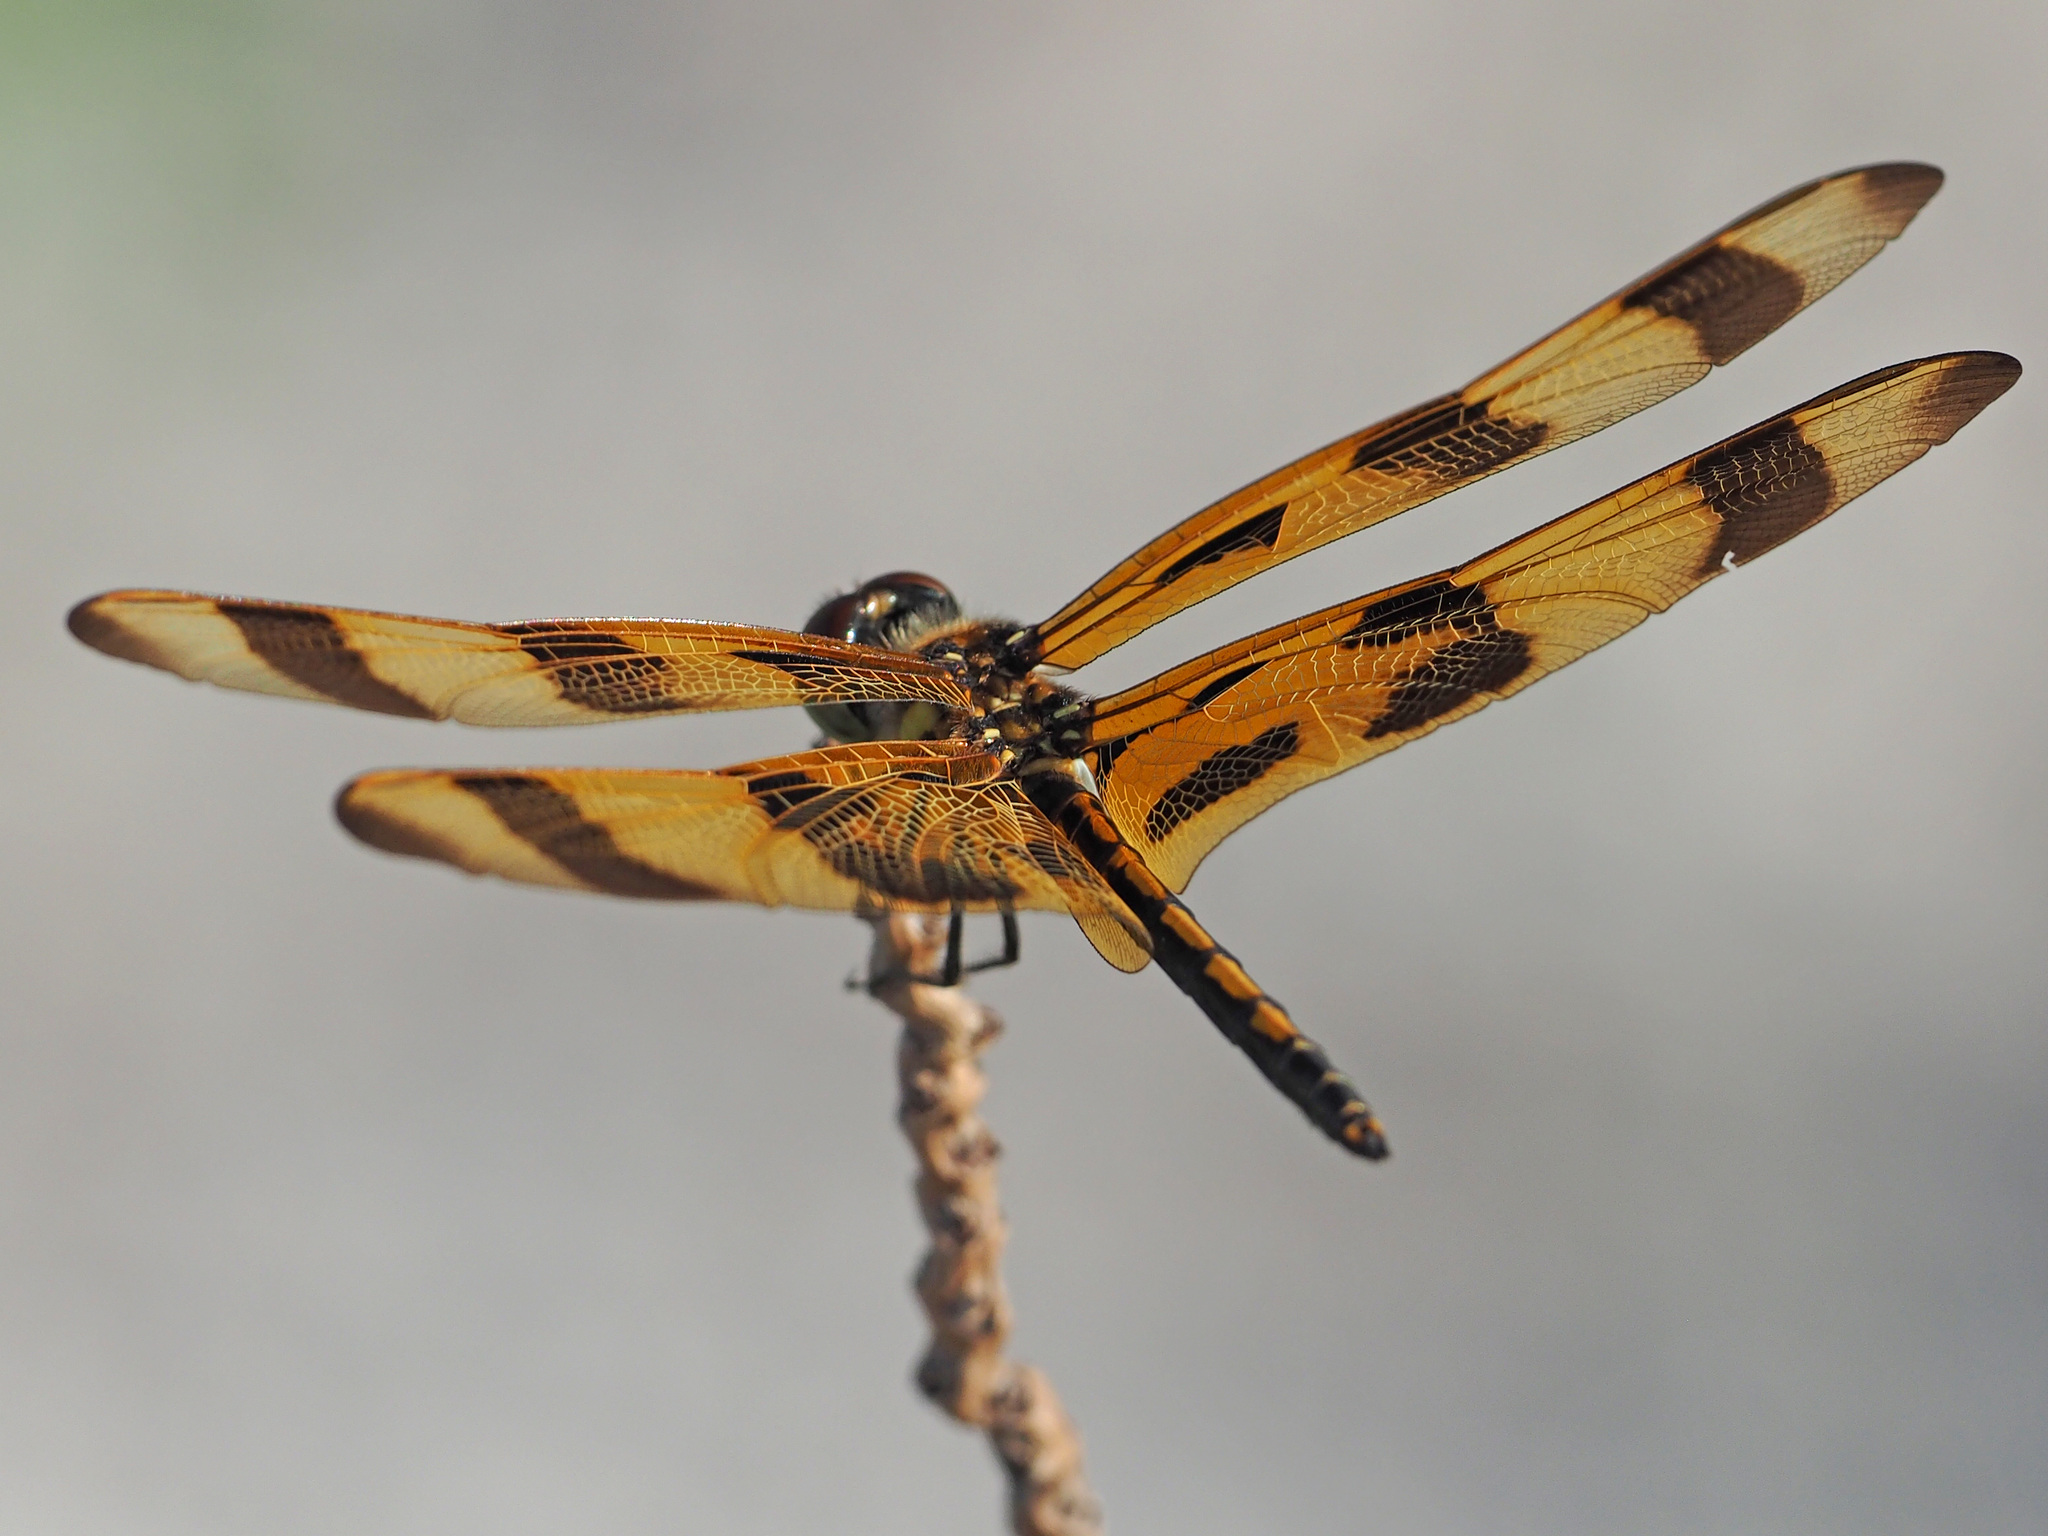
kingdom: Animalia
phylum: Arthropoda
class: Insecta
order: Odonata
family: Libellulidae
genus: Celithemis
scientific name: Celithemis eponina
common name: Halloween pennant
